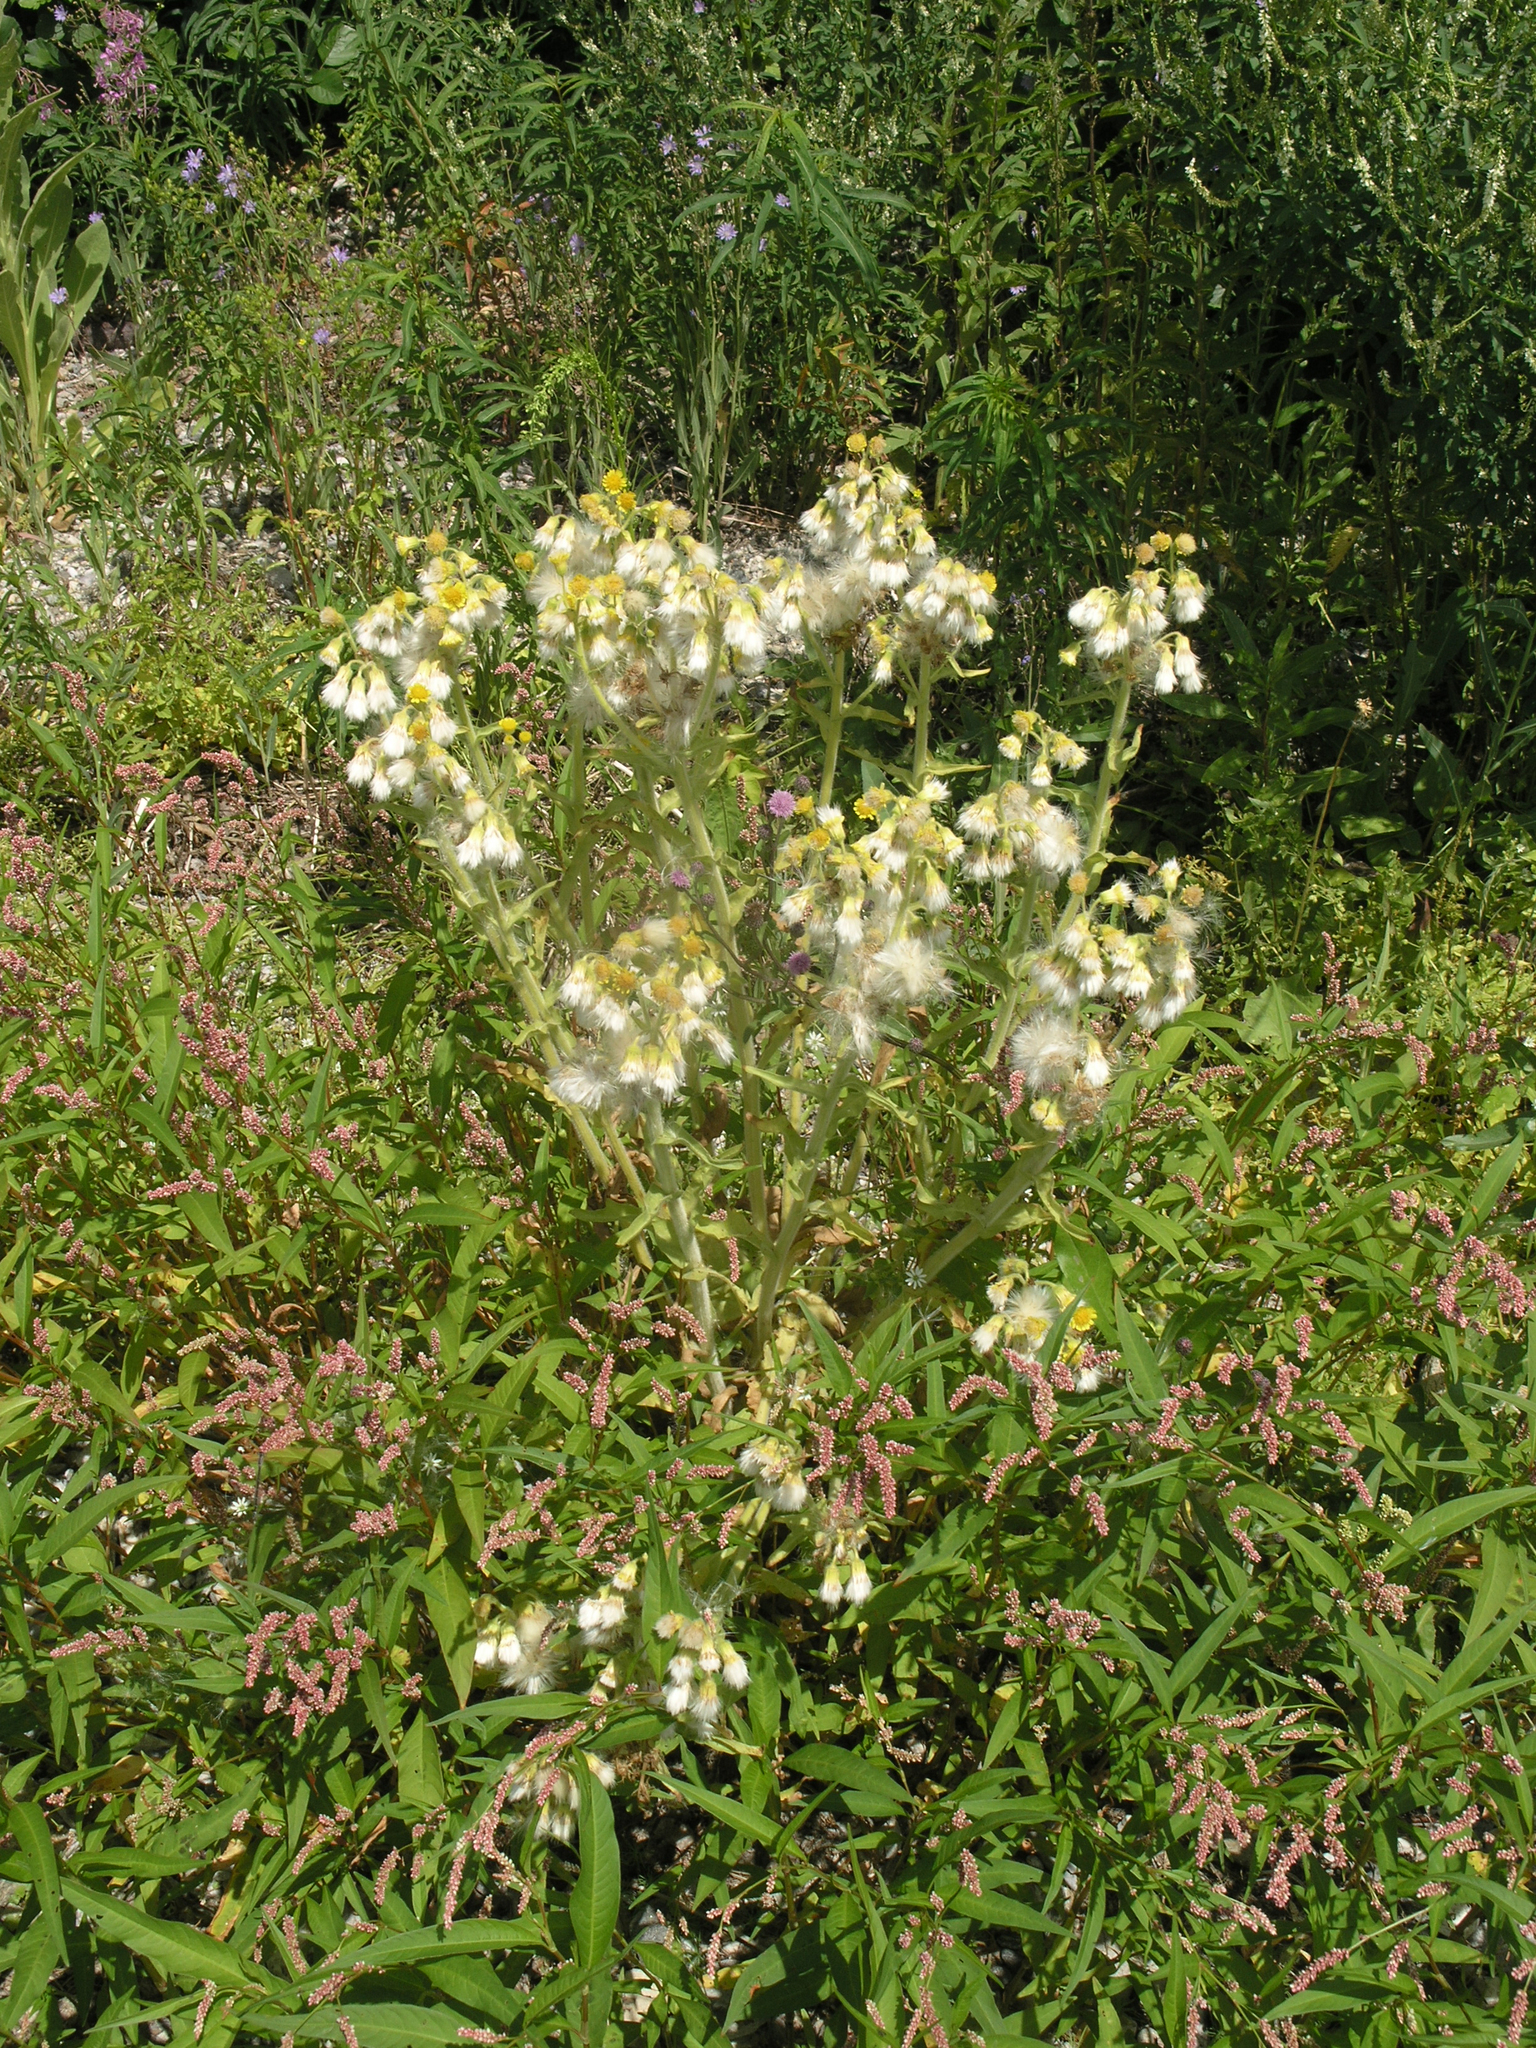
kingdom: Plantae
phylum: Tracheophyta
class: Magnoliopsida
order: Asterales
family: Asteraceae
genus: Tephroseris
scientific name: Tephroseris palustris
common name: Marsh fleawort
